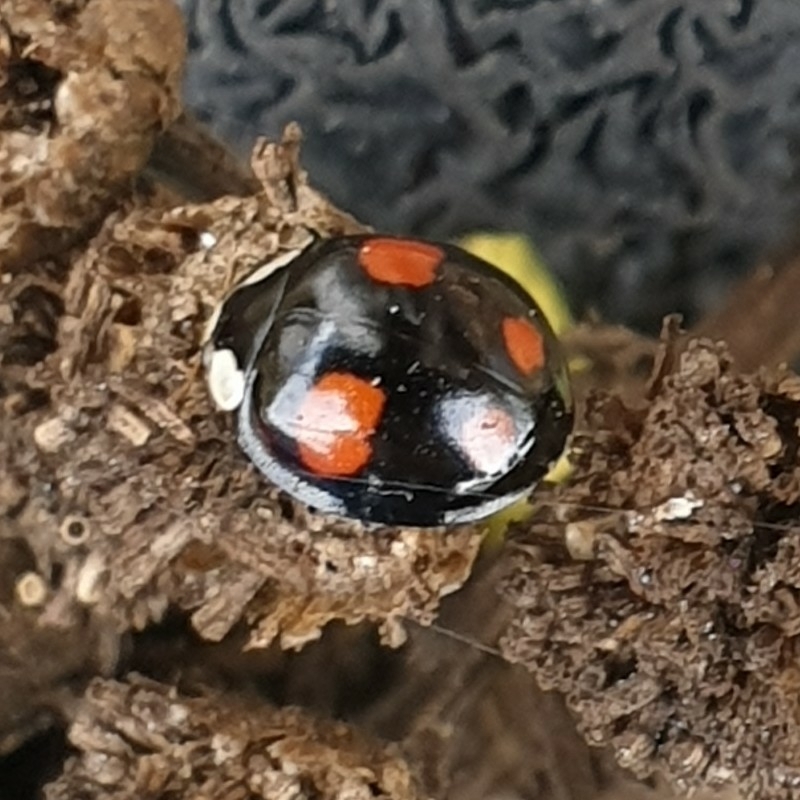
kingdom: Animalia
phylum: Arthropoda
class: Insecta
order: Coleoptera
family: Coccinellidae
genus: Harmonia
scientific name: Harmonia axyridis
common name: Harlequin ladybird
